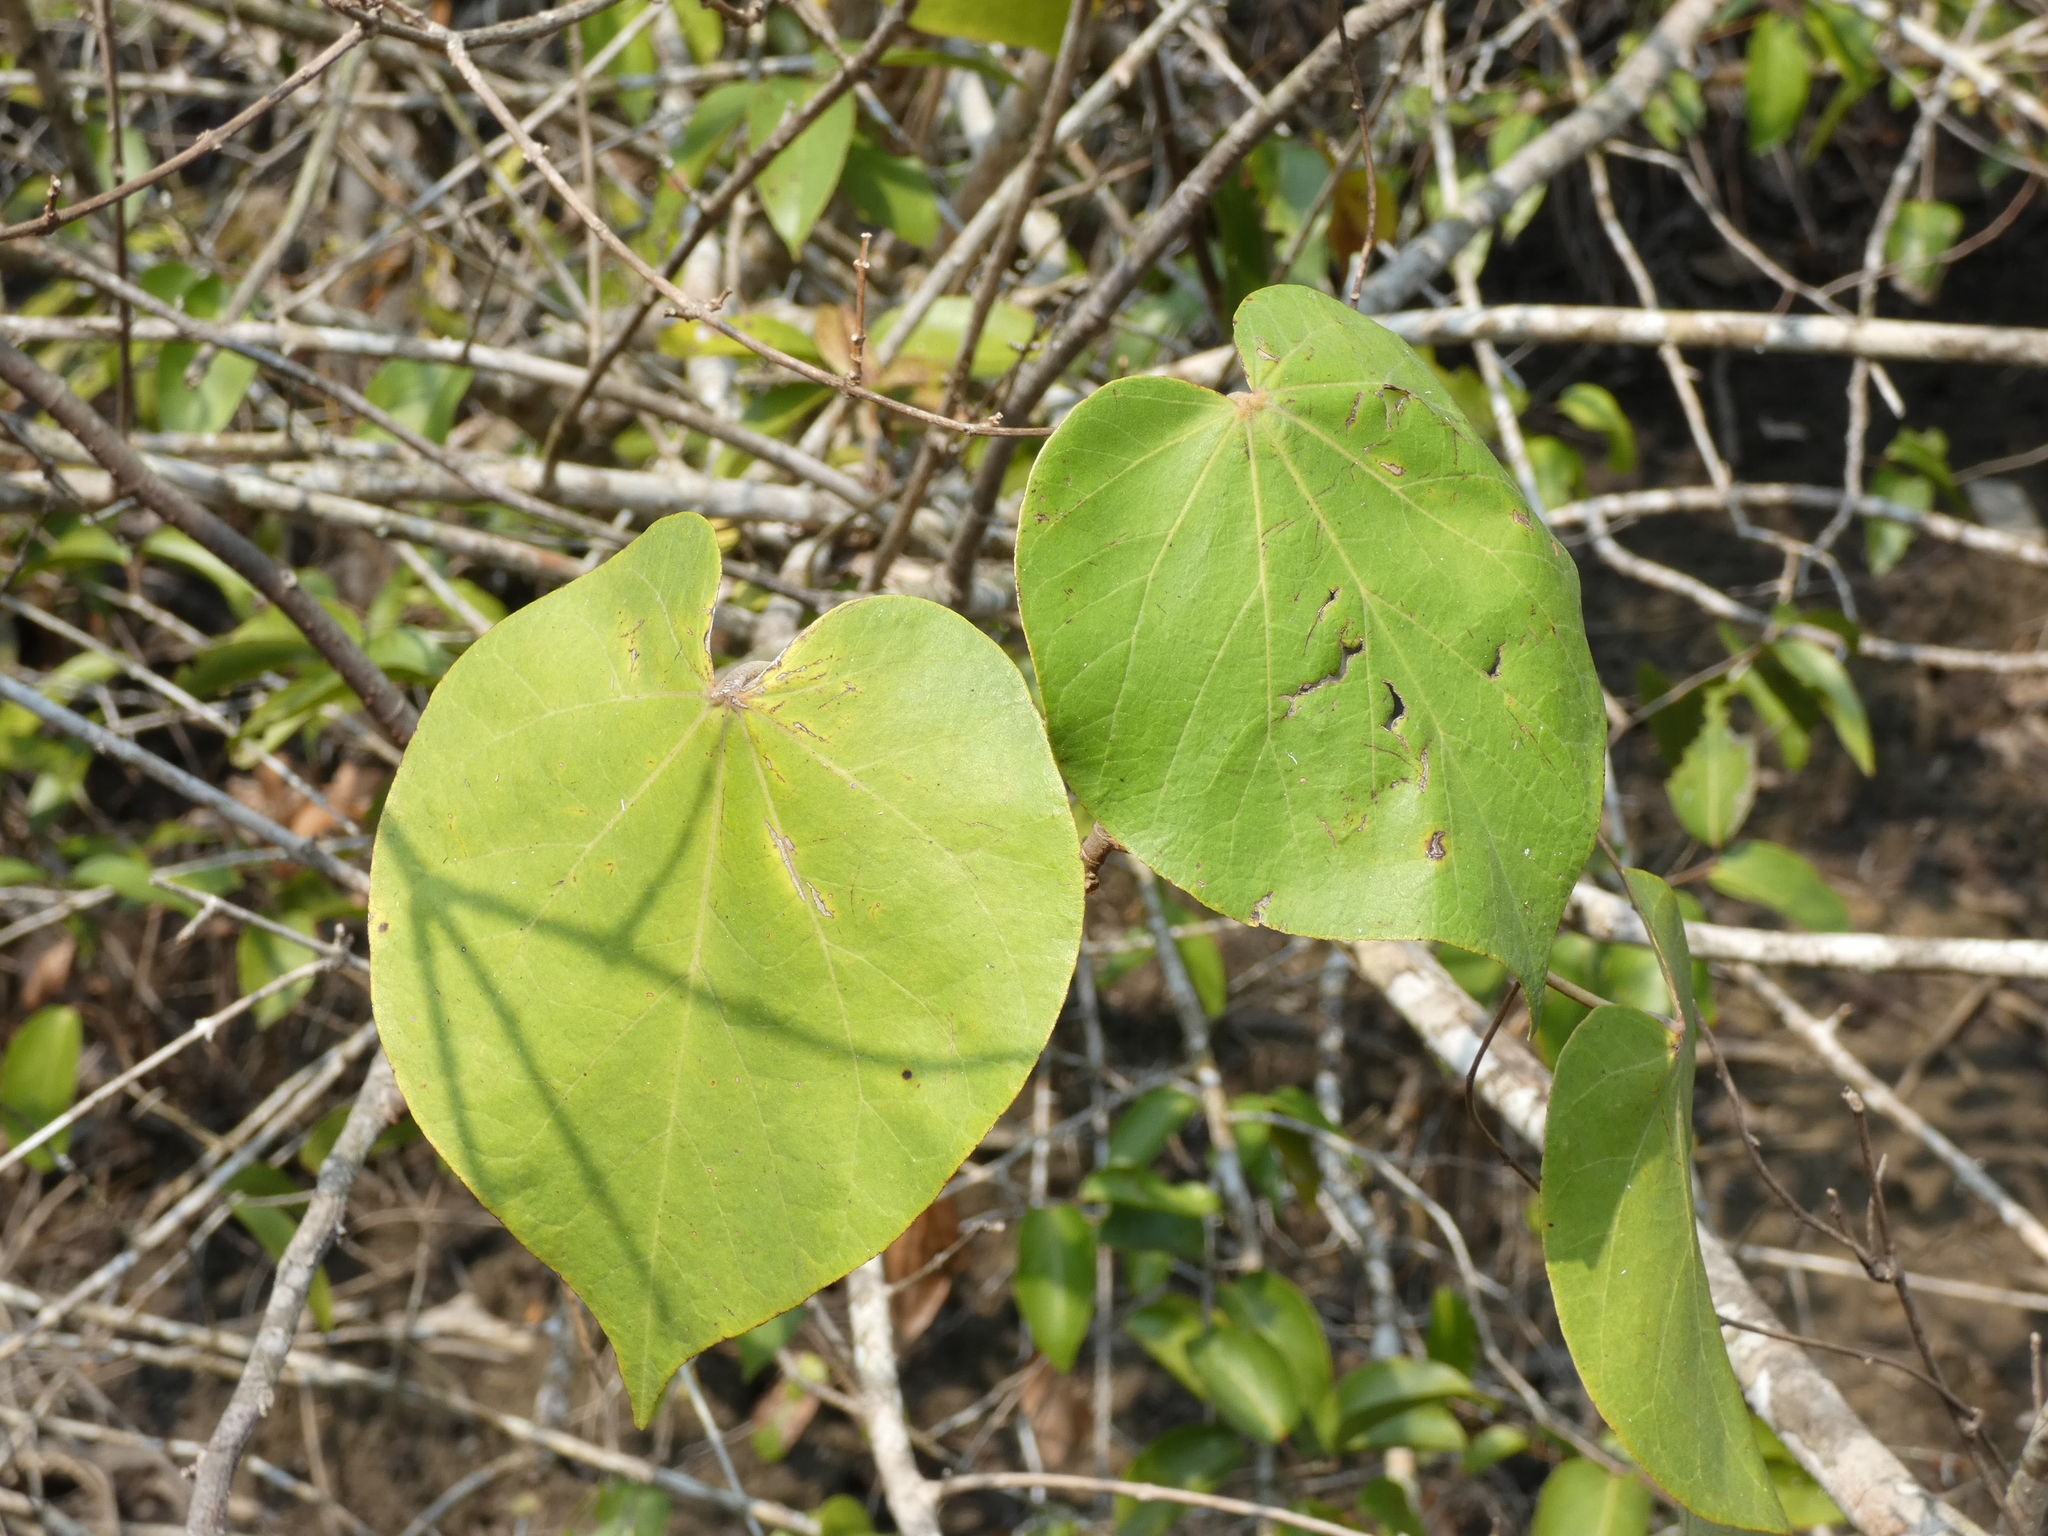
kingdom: Plantae
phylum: Tracheophyta
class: Magnoliopsida
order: Malvales
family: Malvaceae
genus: Talipariti
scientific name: Talipariti tiliaceum
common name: Sea hibiscus
